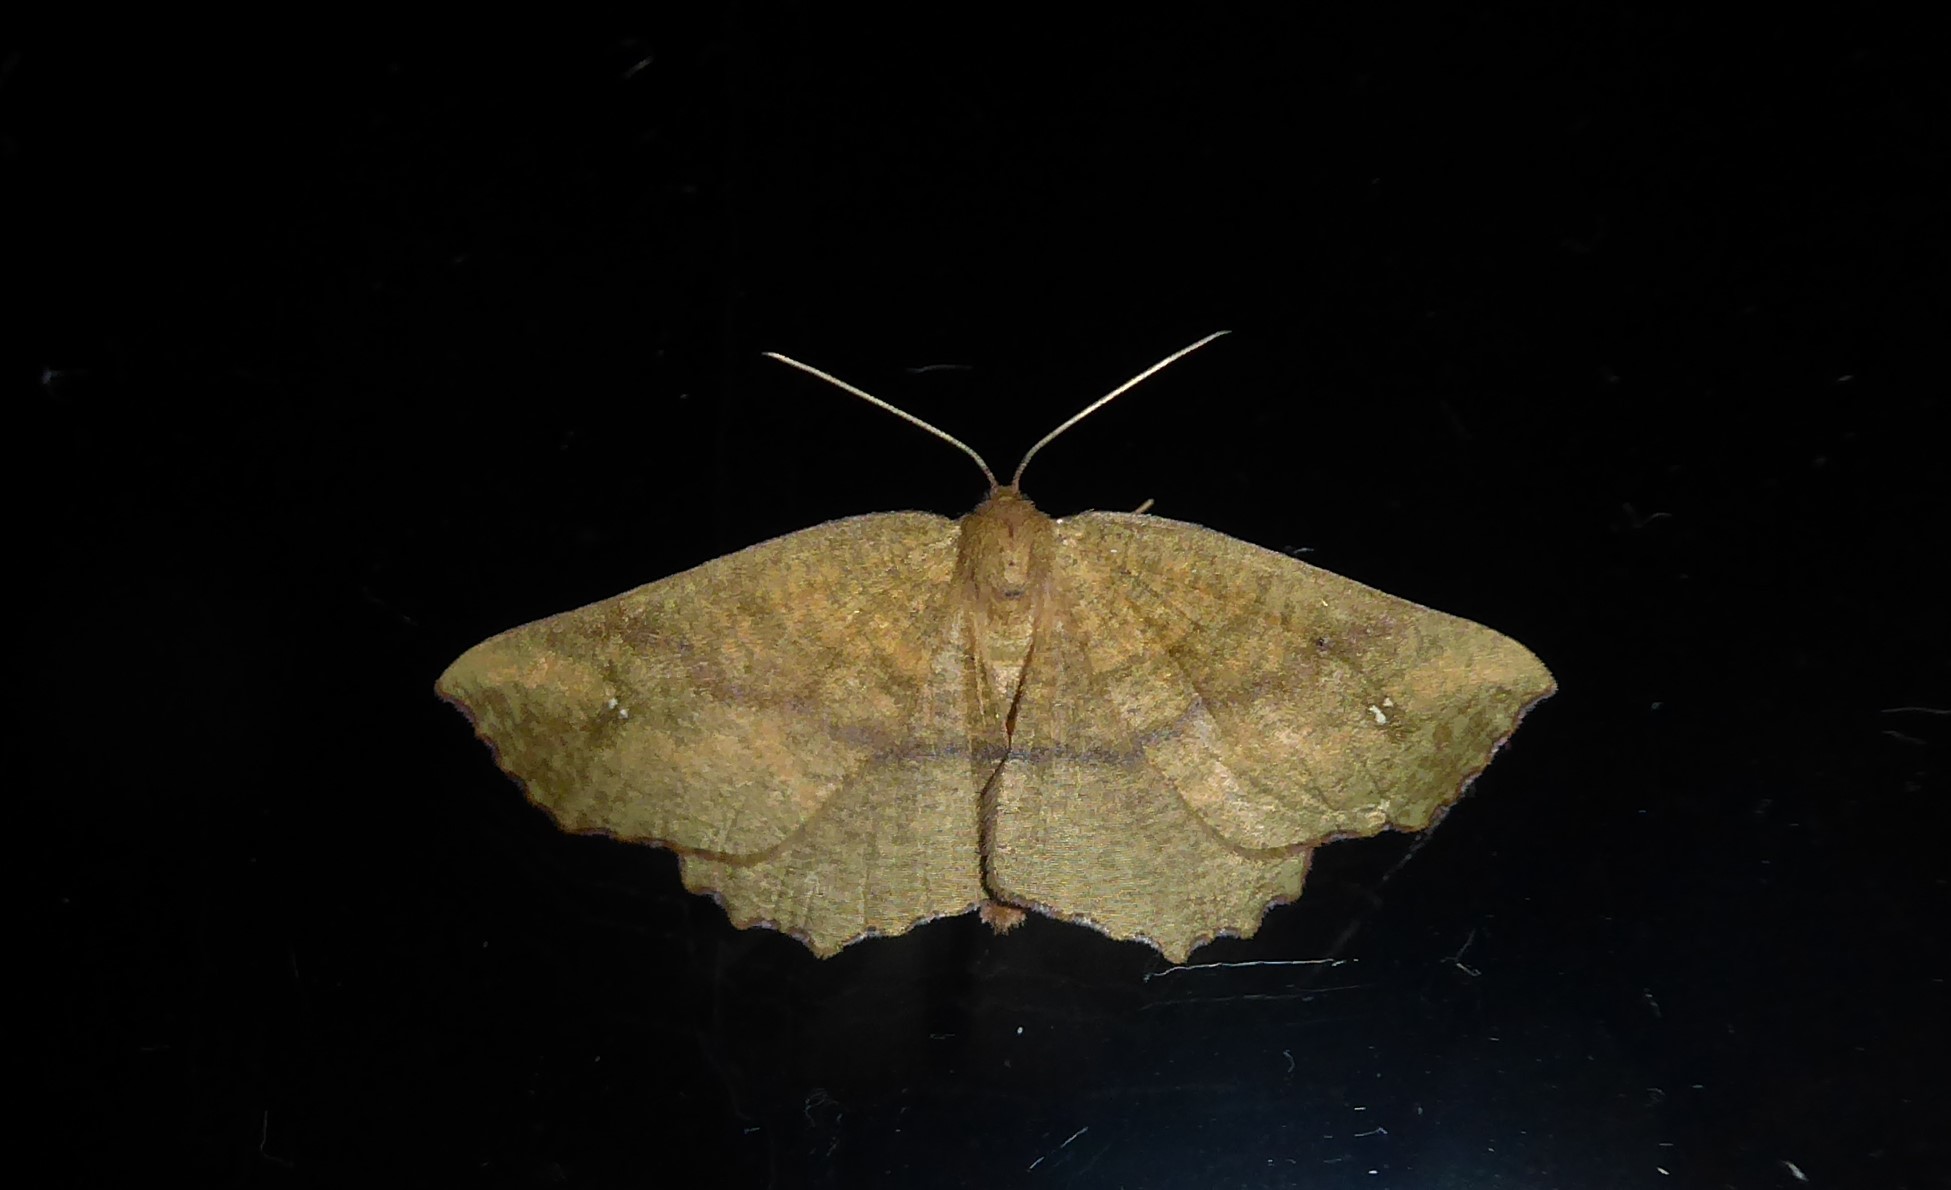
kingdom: Animalia
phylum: Arthropoda
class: Insecta
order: Lepidoptera
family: Geometridae
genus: Xyridacma
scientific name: Xyridacma ustaria
